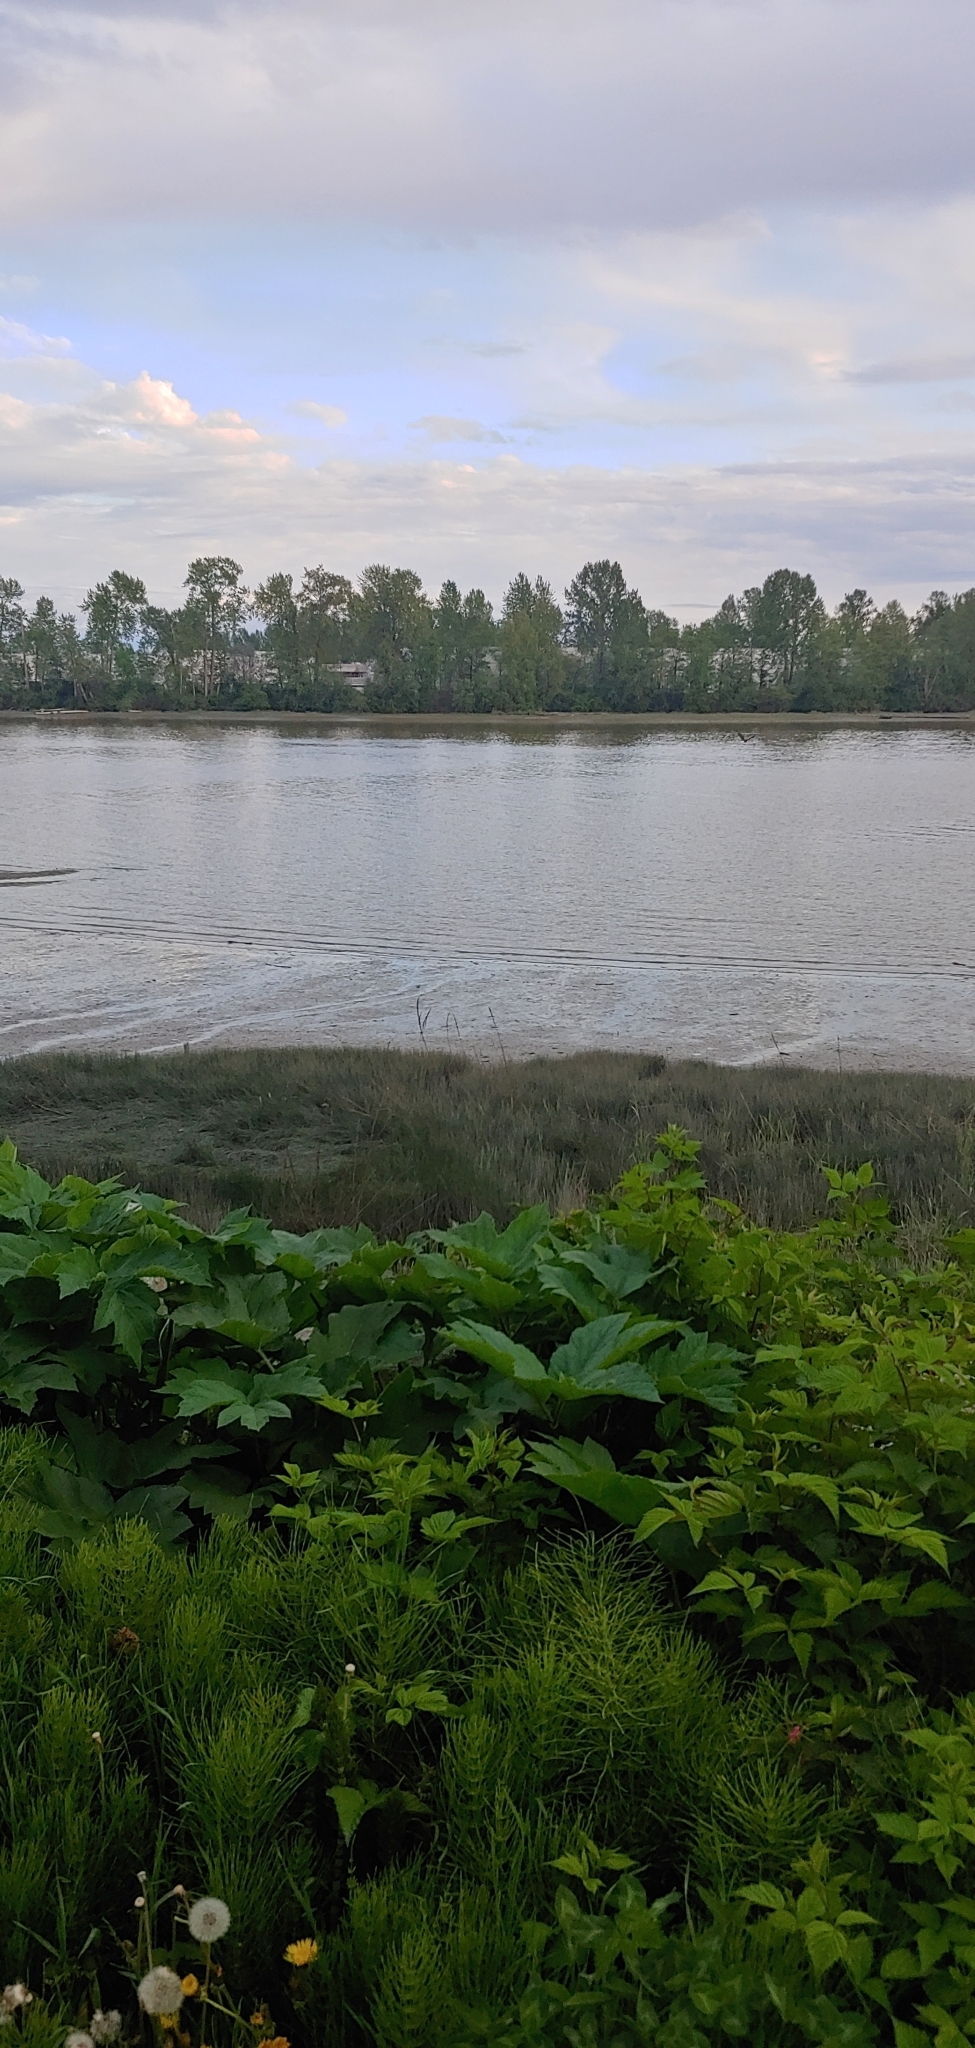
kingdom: Animalia
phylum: Chordata
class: Aves
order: Accipitriformes
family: Accipitridae
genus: Haliaeetus
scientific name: Haliaeetus leucocephalus
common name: Bald eagle
